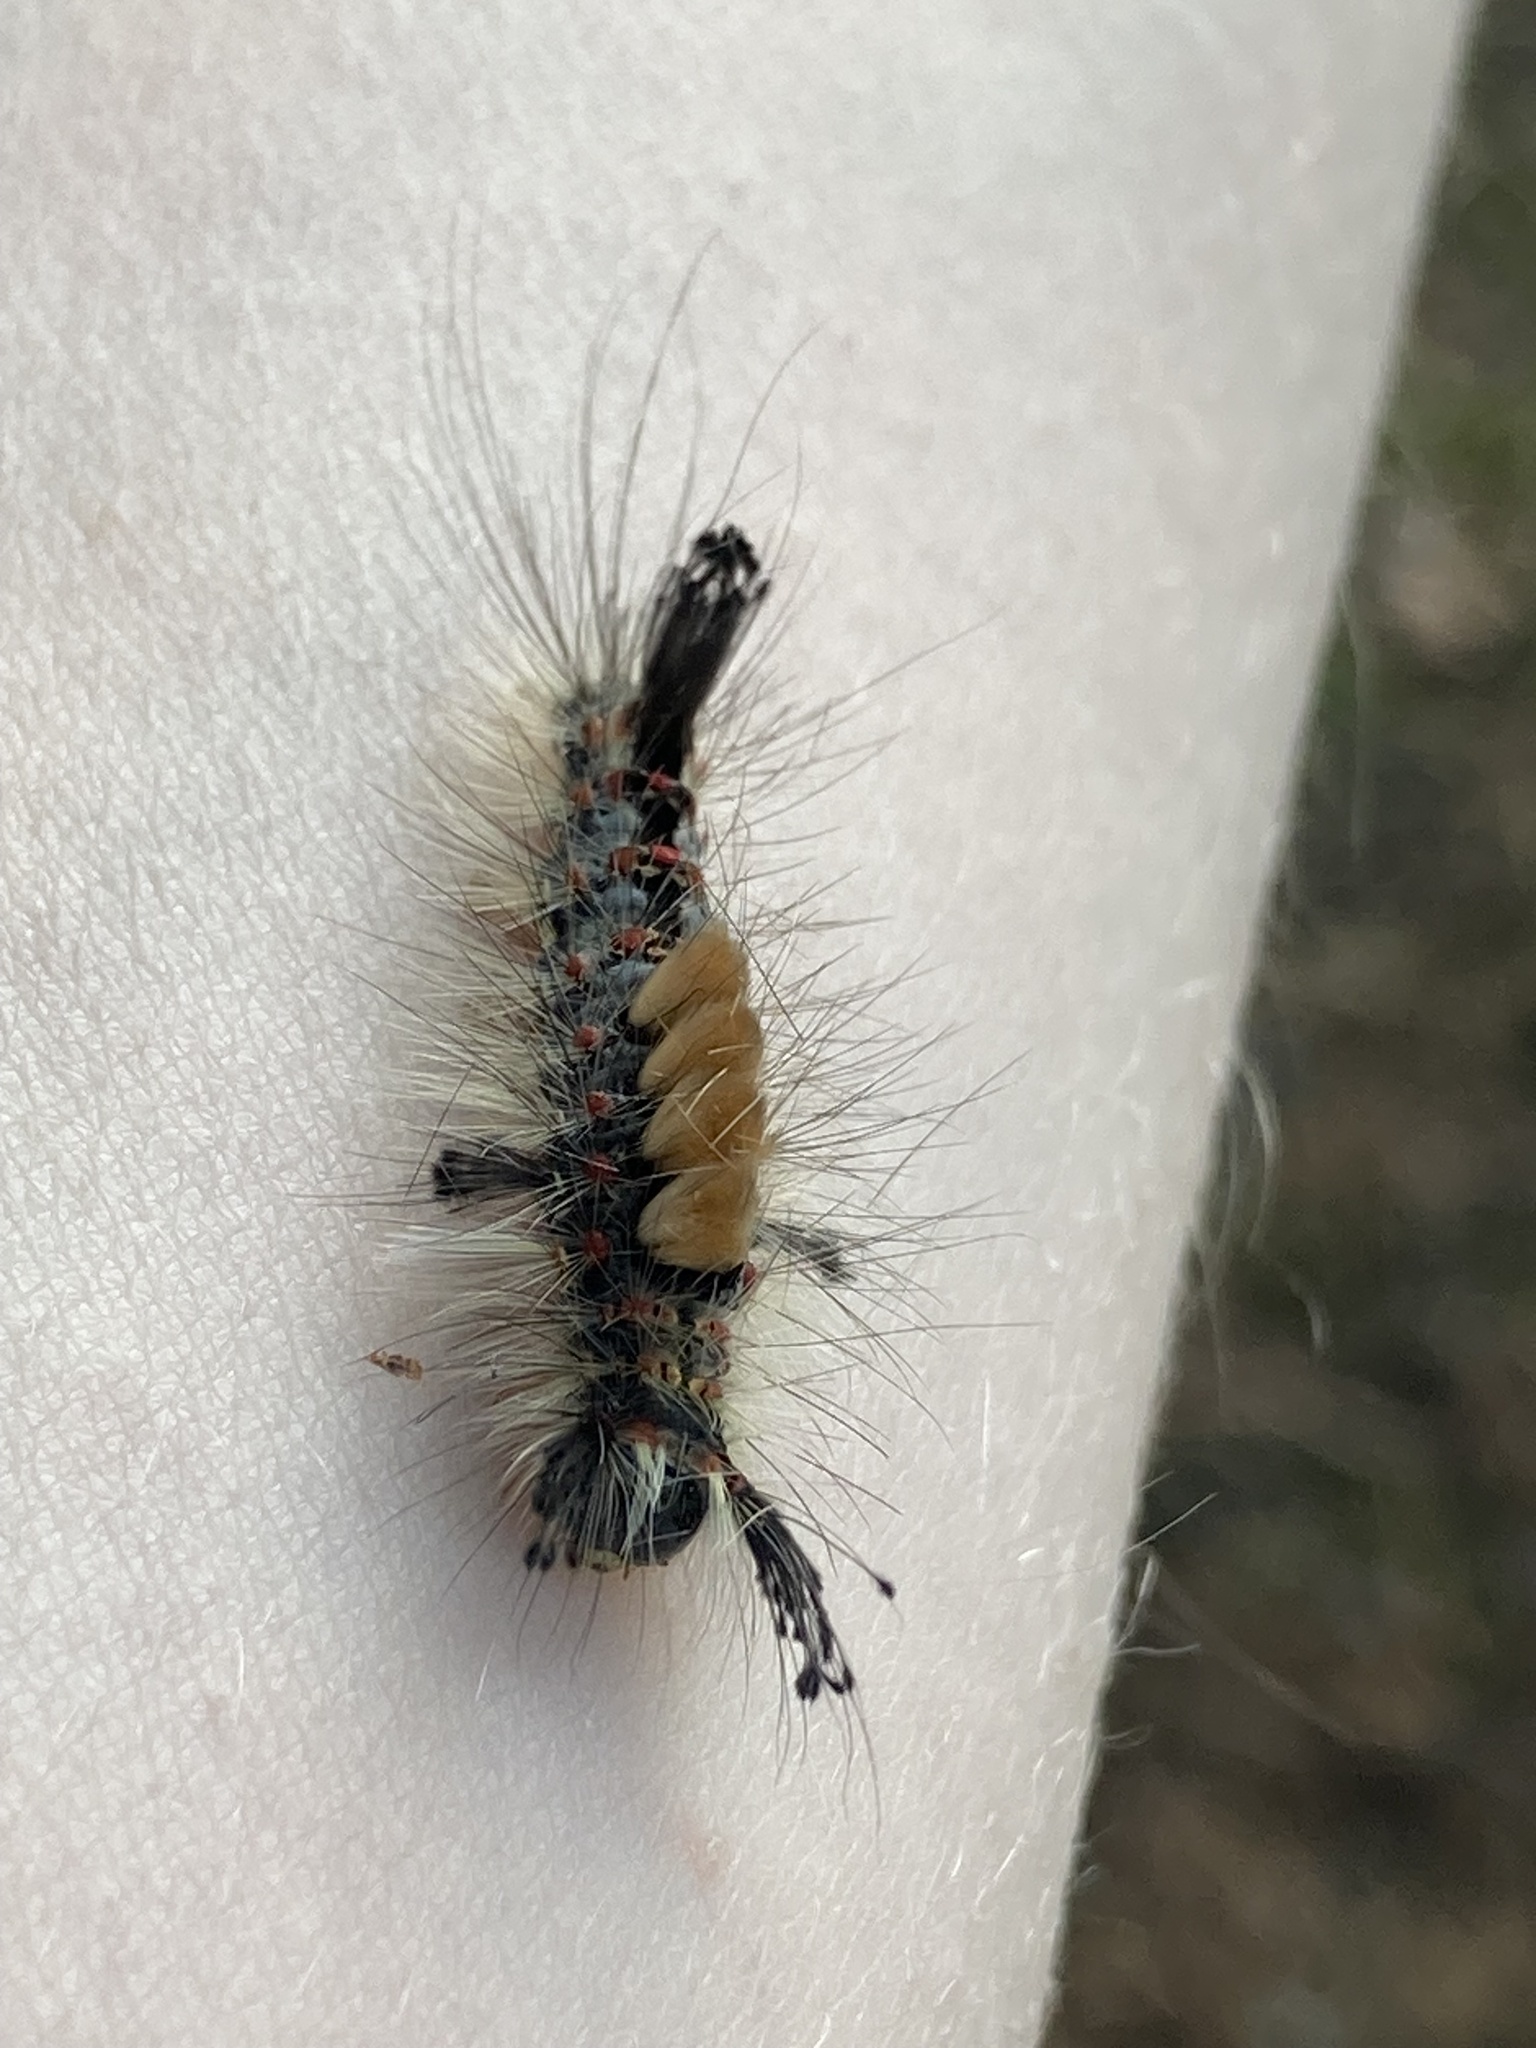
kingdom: Animalia
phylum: Arthropoda
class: Insecta
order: Lepidoptera
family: Erebidae
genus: Orgyia
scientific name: Orgyia antiqua
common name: Vapourer
